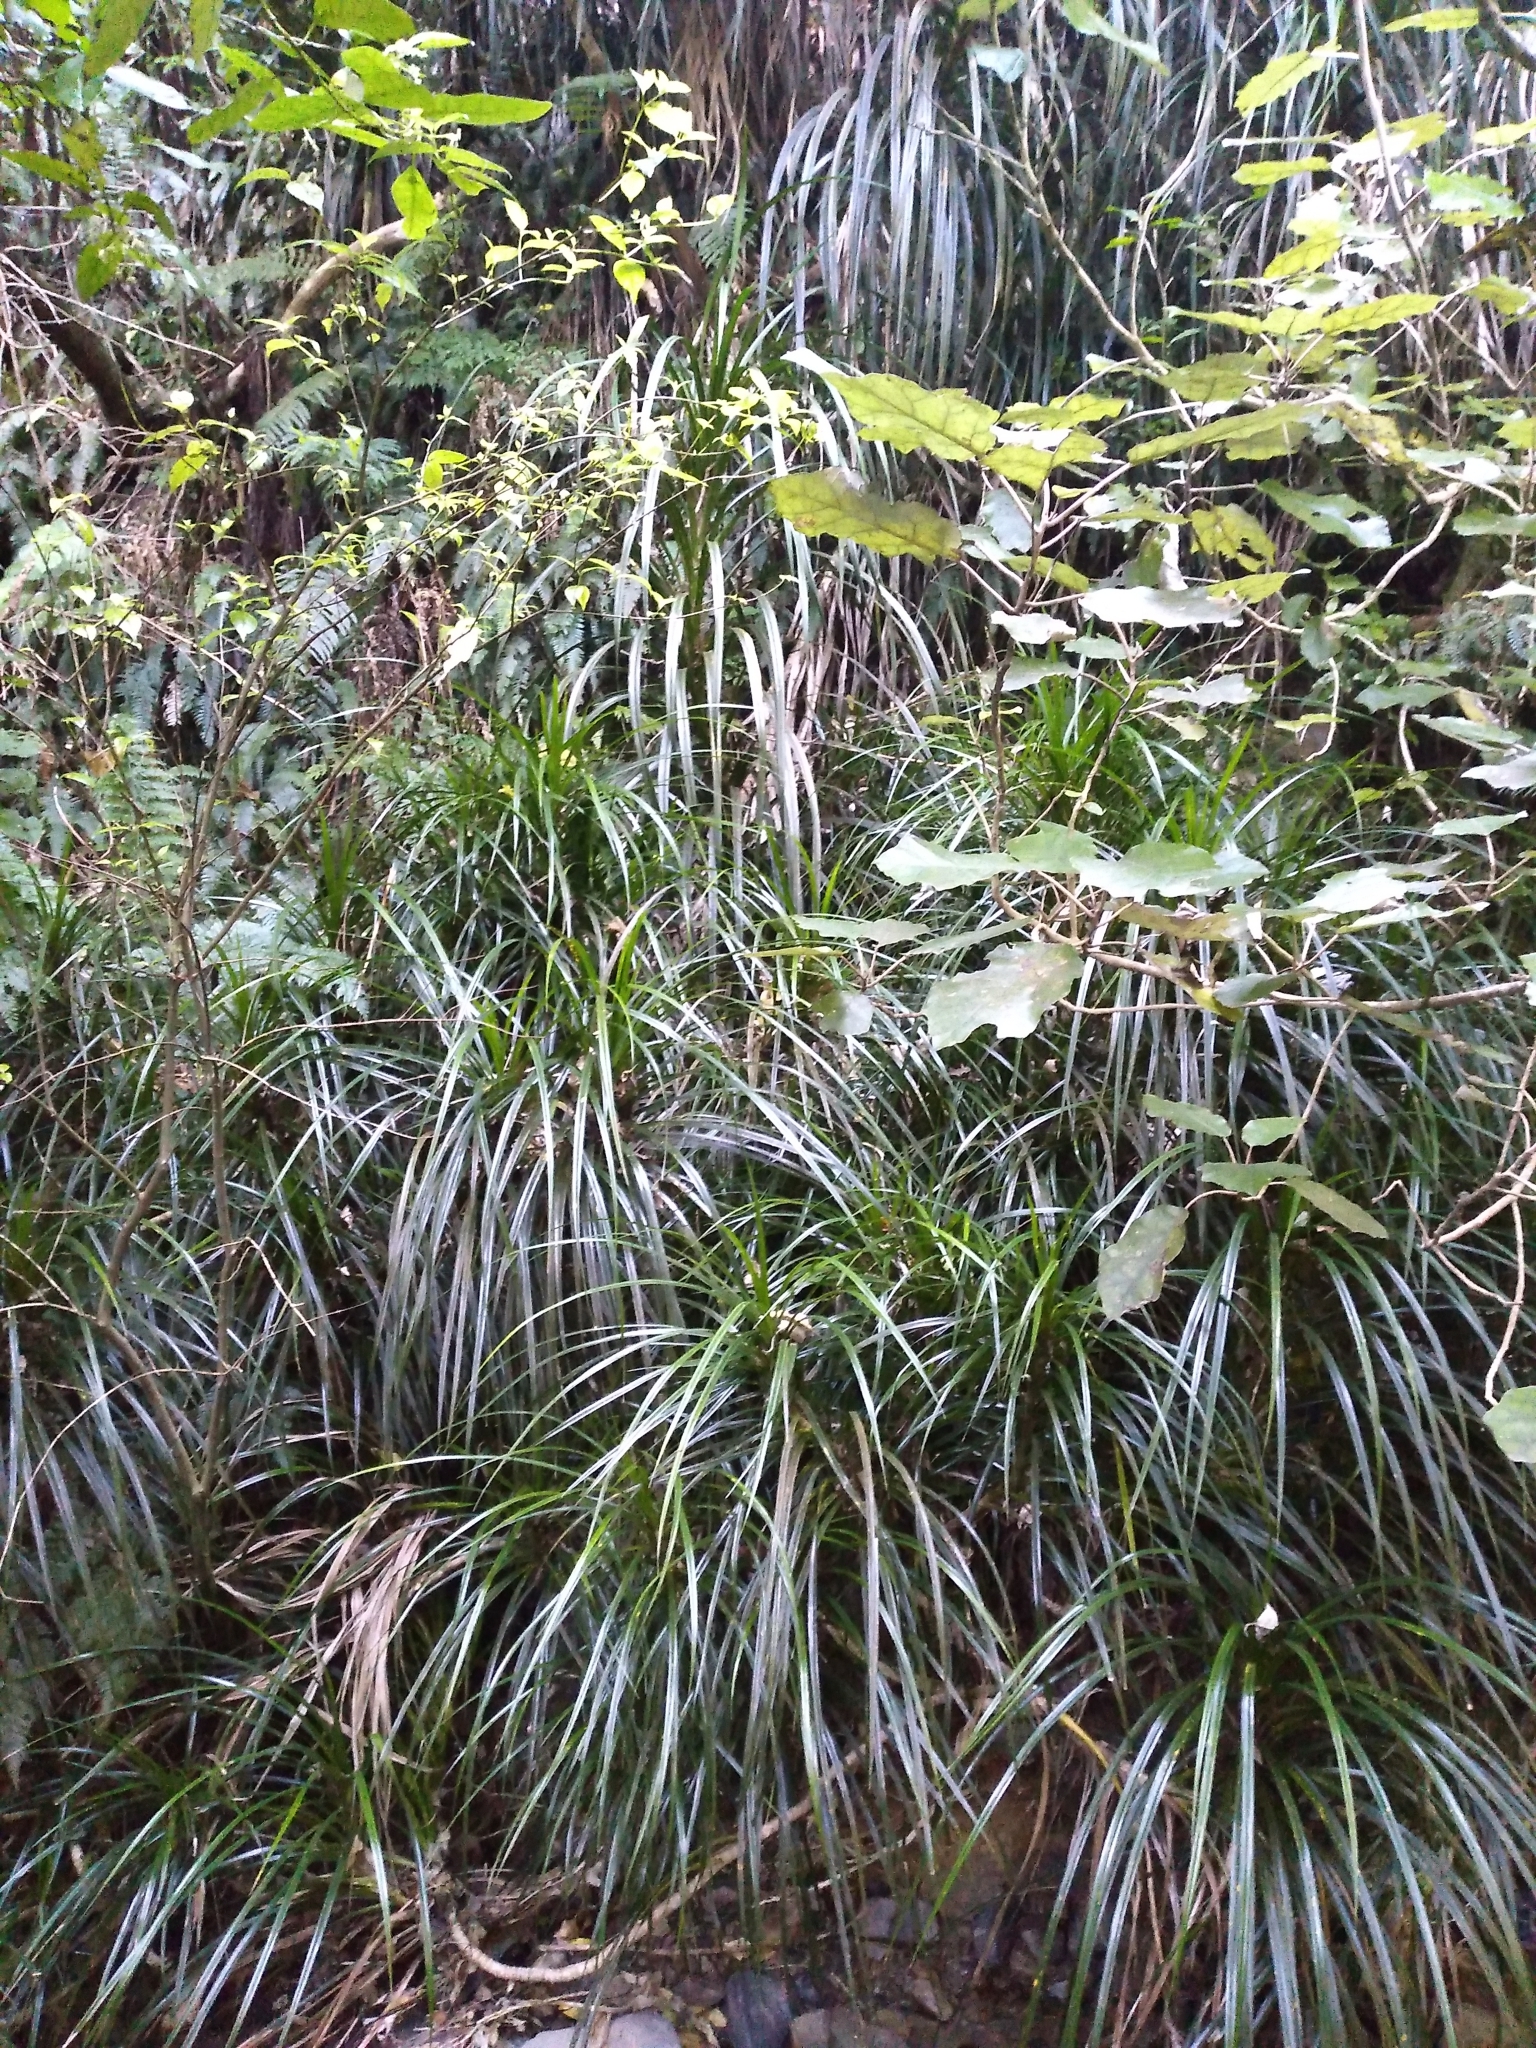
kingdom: Plantae
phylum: Tracheophyta
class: Liliopsida
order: Pandanales
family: Pandanaceae
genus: Freycinetia
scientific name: Freycinetia banksii
